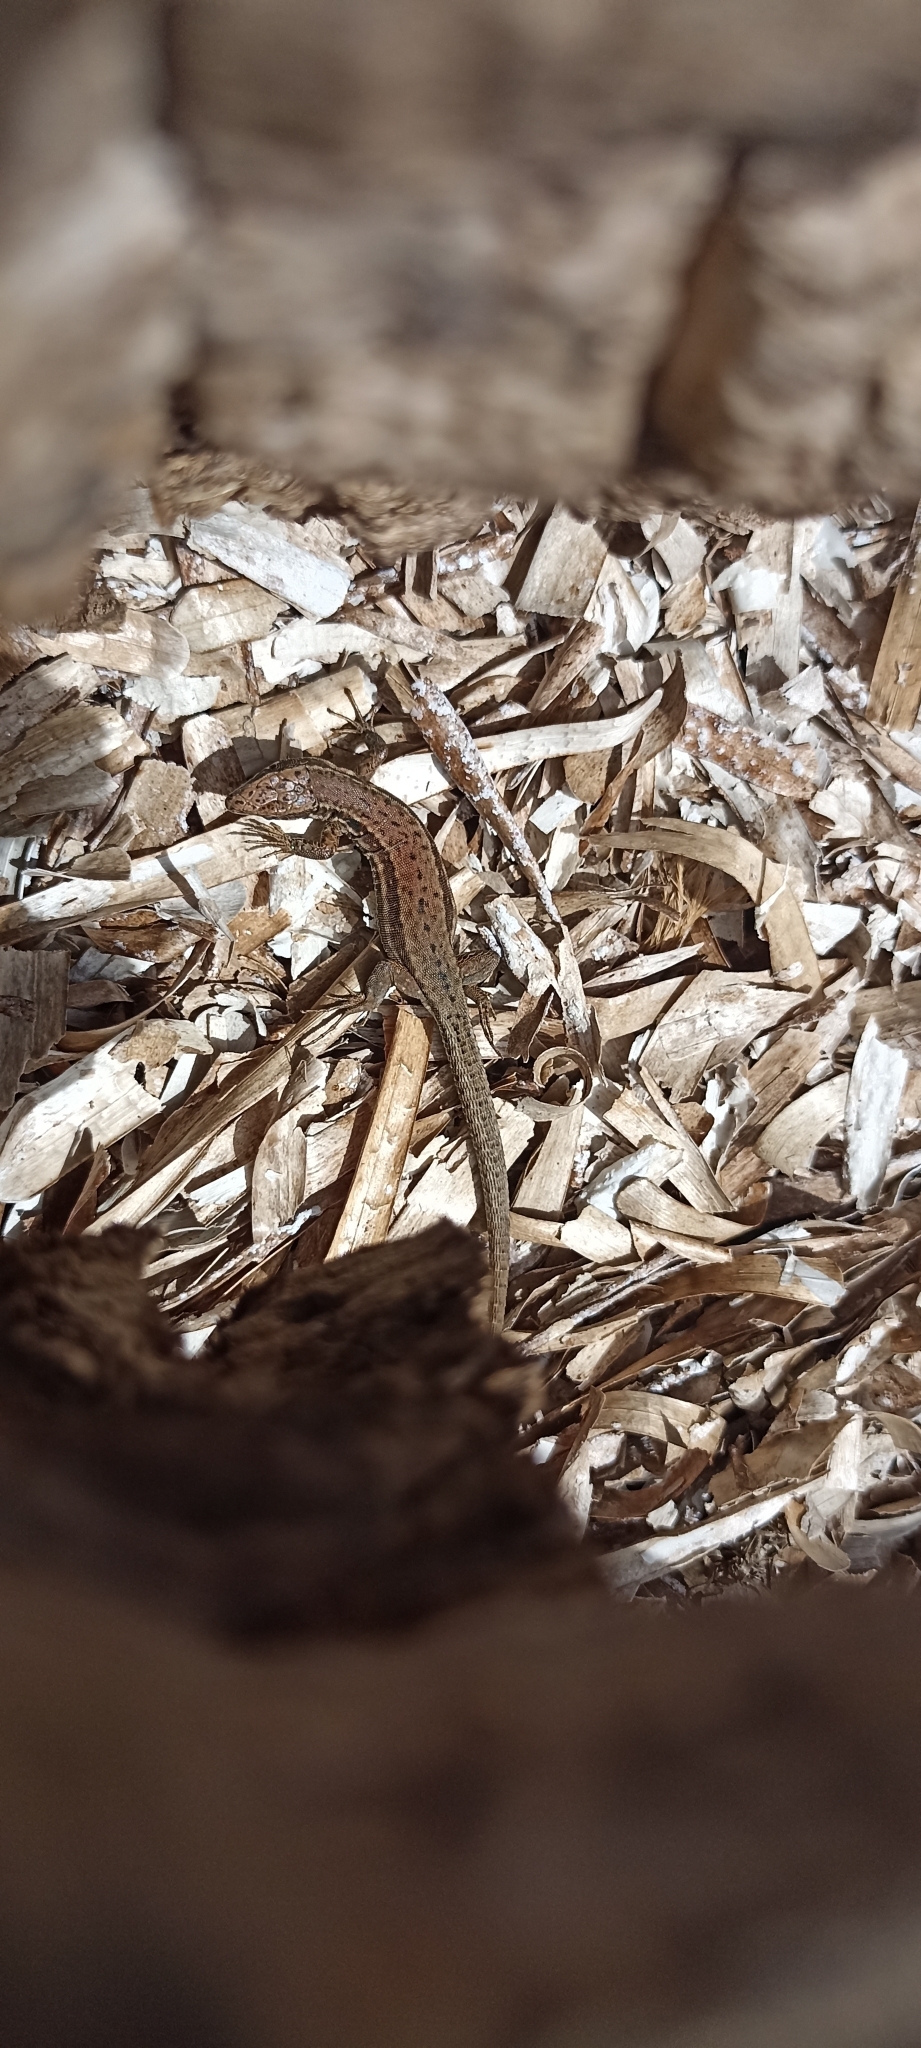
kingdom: Animalia
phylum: Chordata
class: Squamata
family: Lacertidae
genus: Podarcis
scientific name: Podarcis muralis
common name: Common wall lizard
